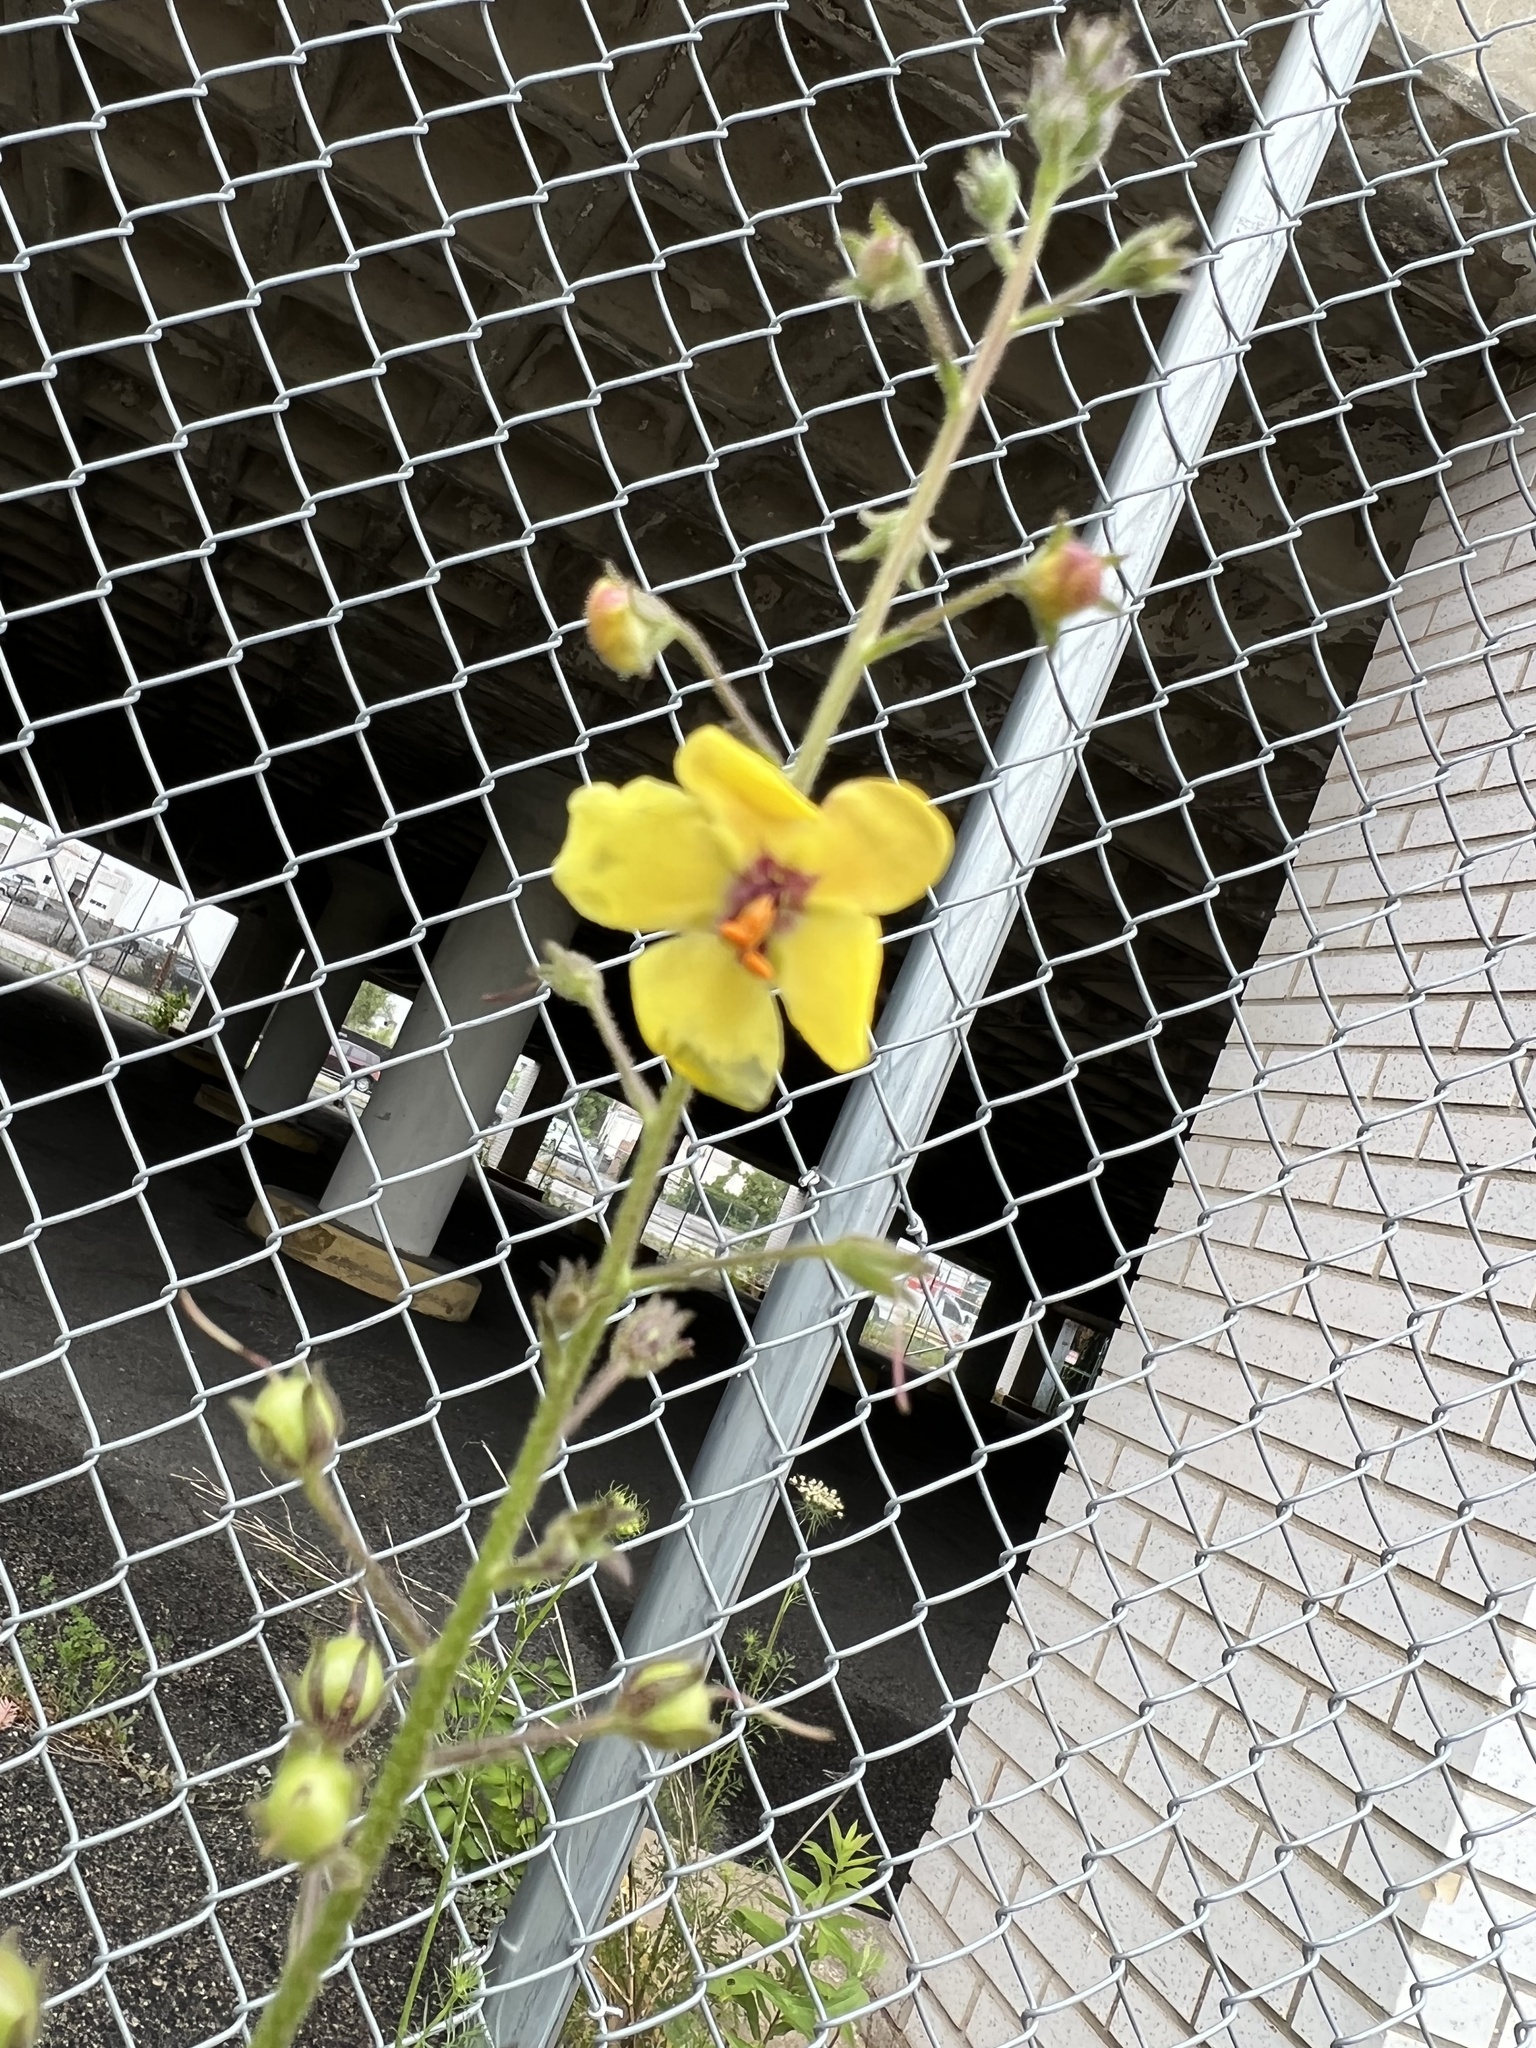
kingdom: Plantae
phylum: Tracheophyta
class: Magnoliopsida
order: Lamiales
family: Scrophulariaceae
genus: Verbascum
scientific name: Verbascum blattaria
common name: Moth mullein
